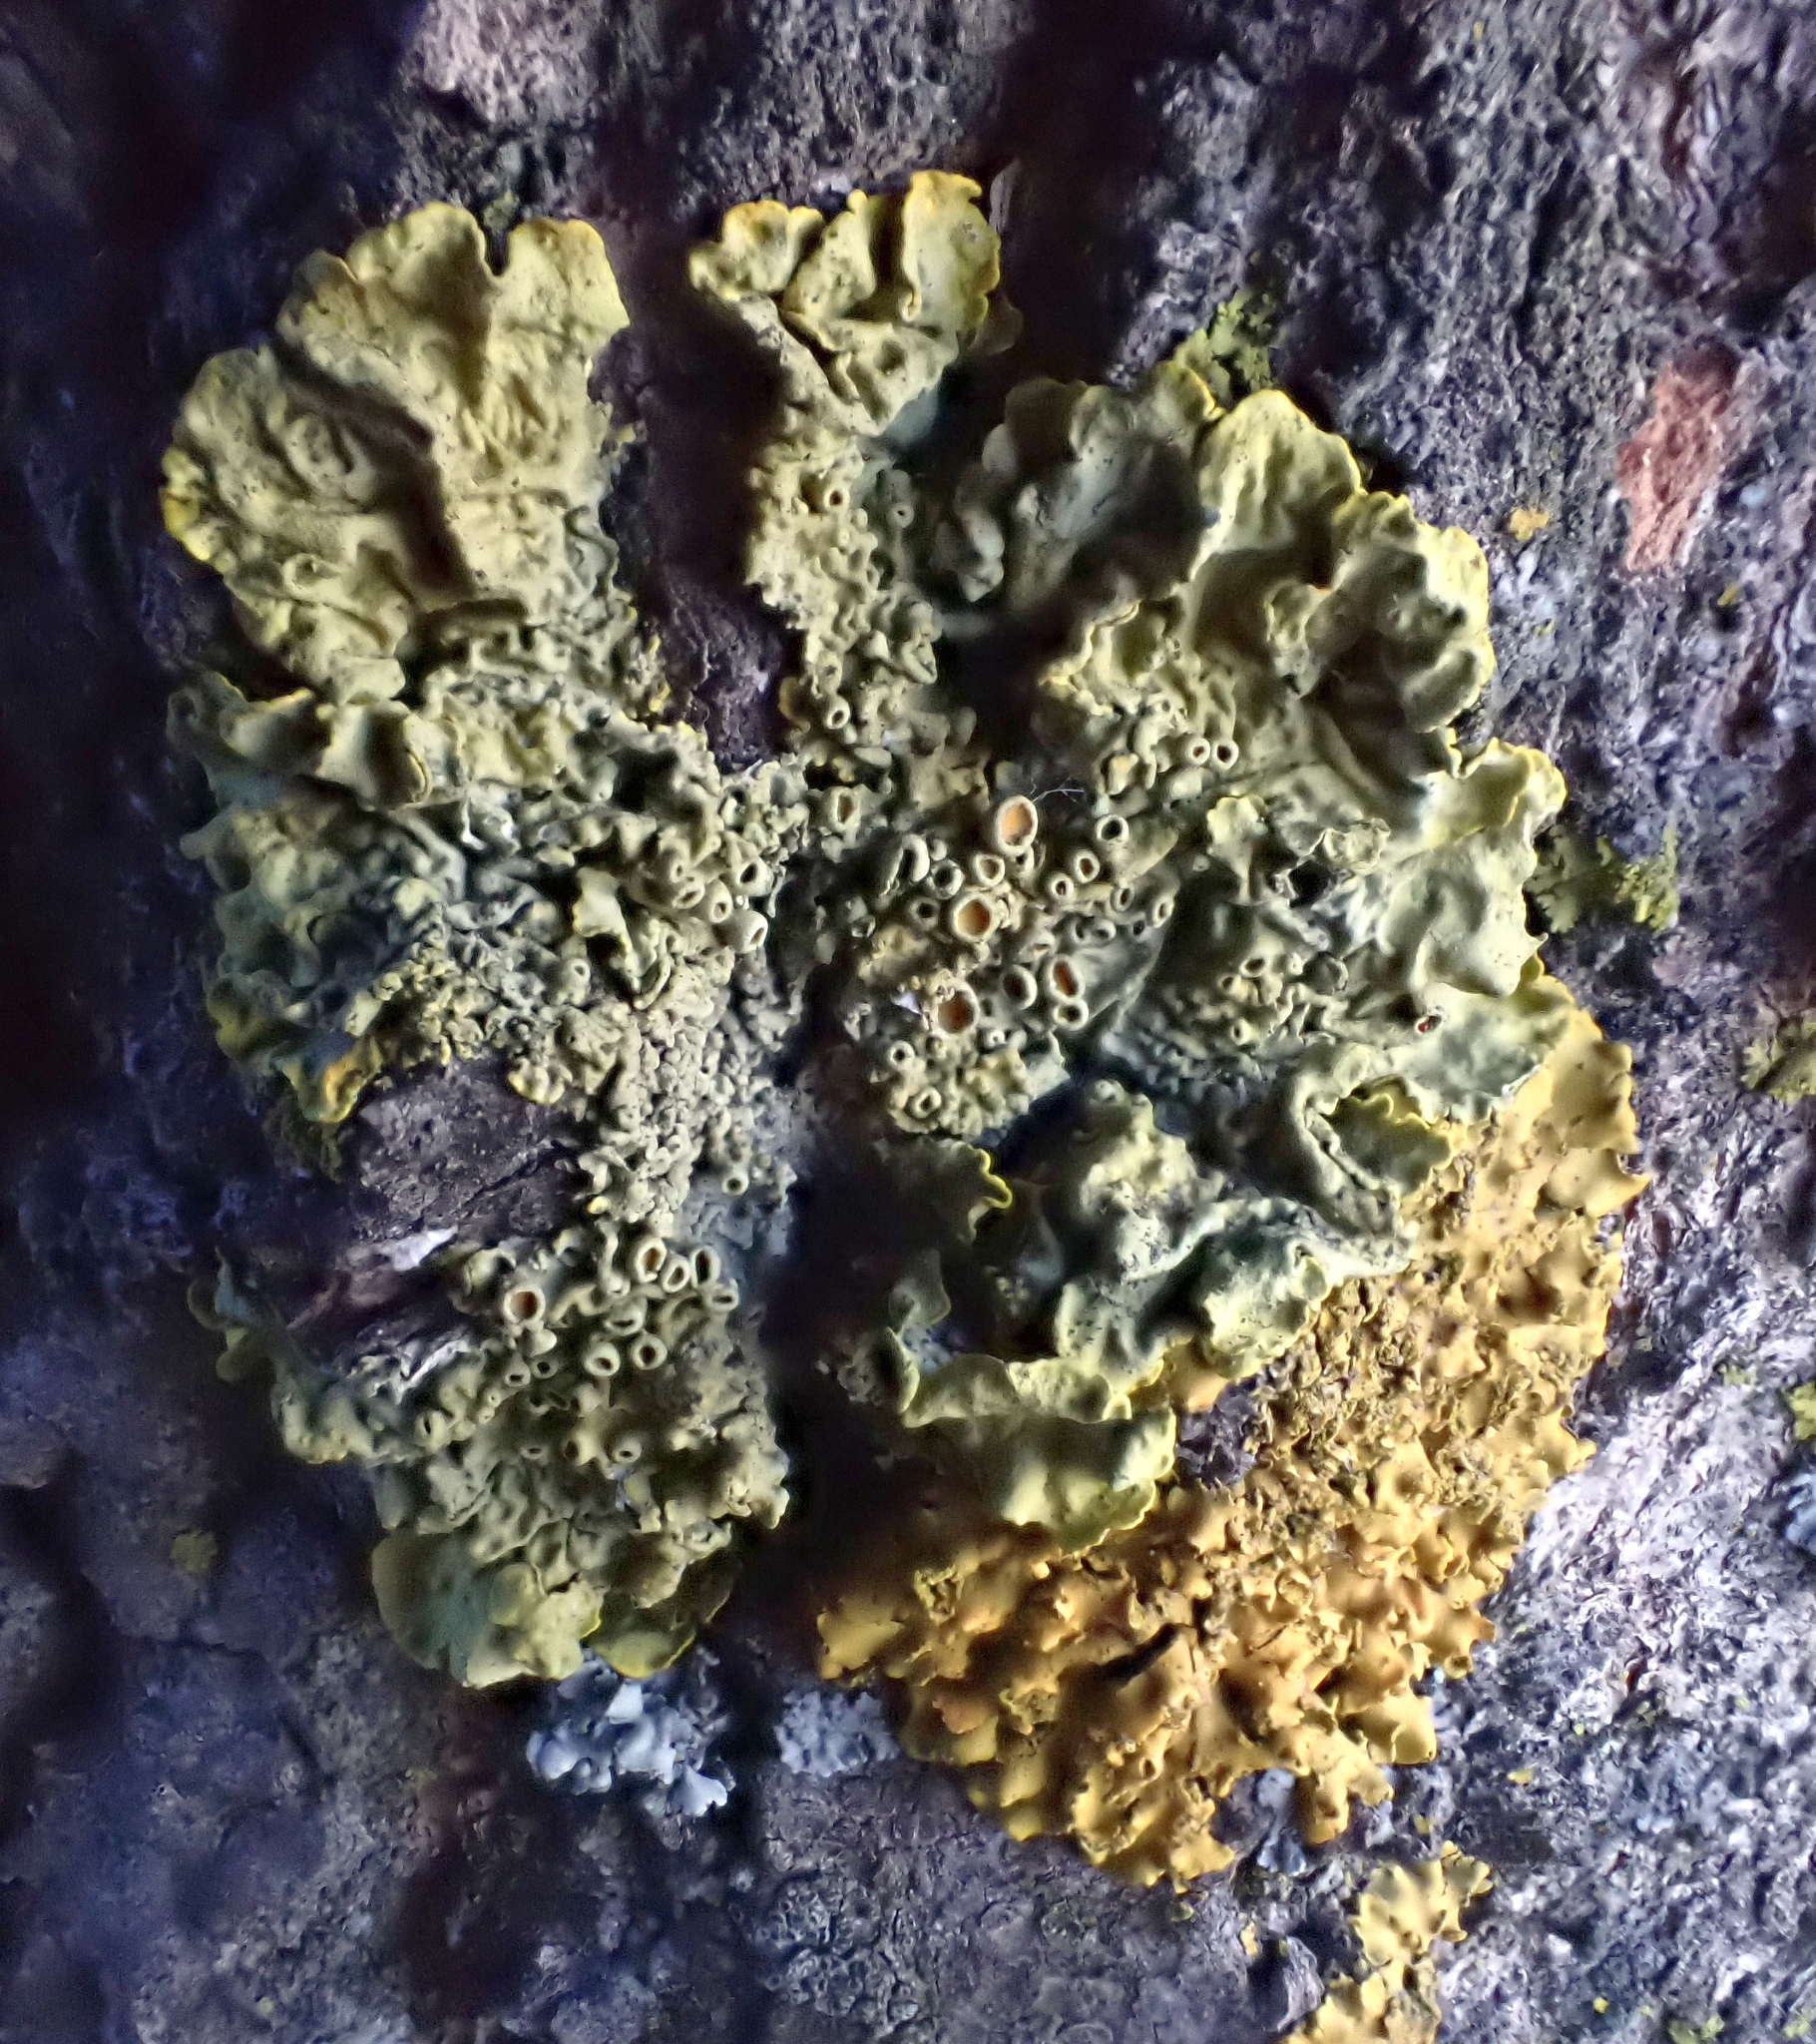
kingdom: Fungi
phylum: Ascomycota
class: Lecanoromycetes
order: Teloschistales
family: Teloschistaceae
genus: Xanthoria
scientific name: Xanthoria parietina
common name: Common orange lichen
